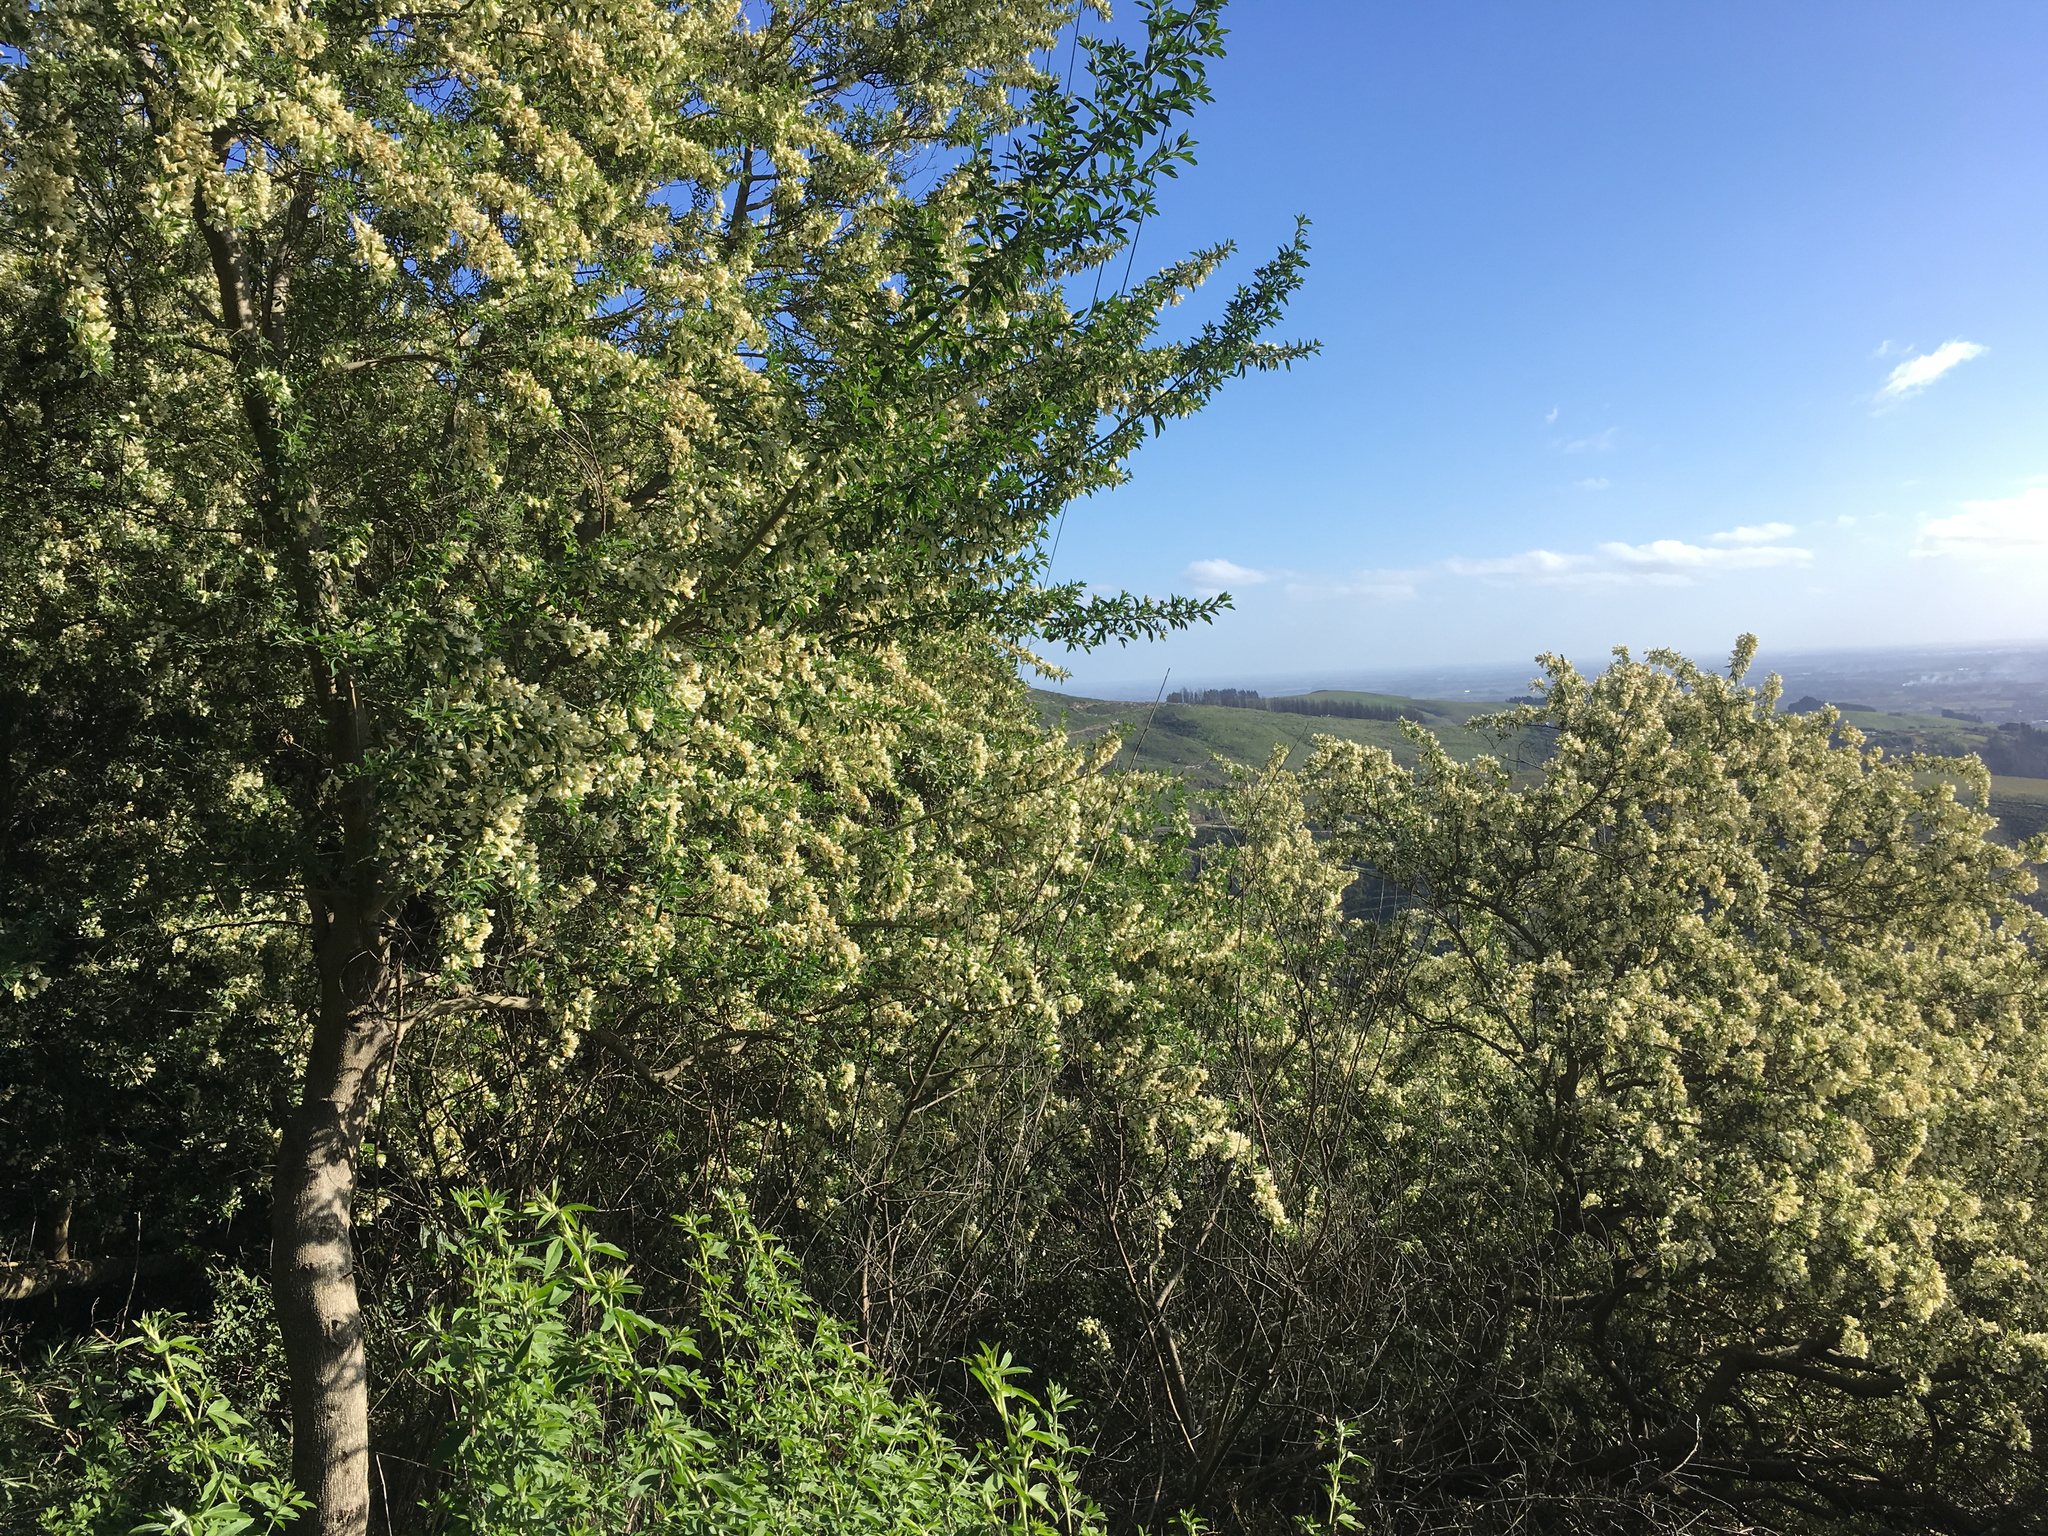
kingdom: Plantae
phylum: Tracheophyta
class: Magnoliopsida
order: Fabales
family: Fabaceae
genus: Chamaecytisus
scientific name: Chamaecytisus prolifer
